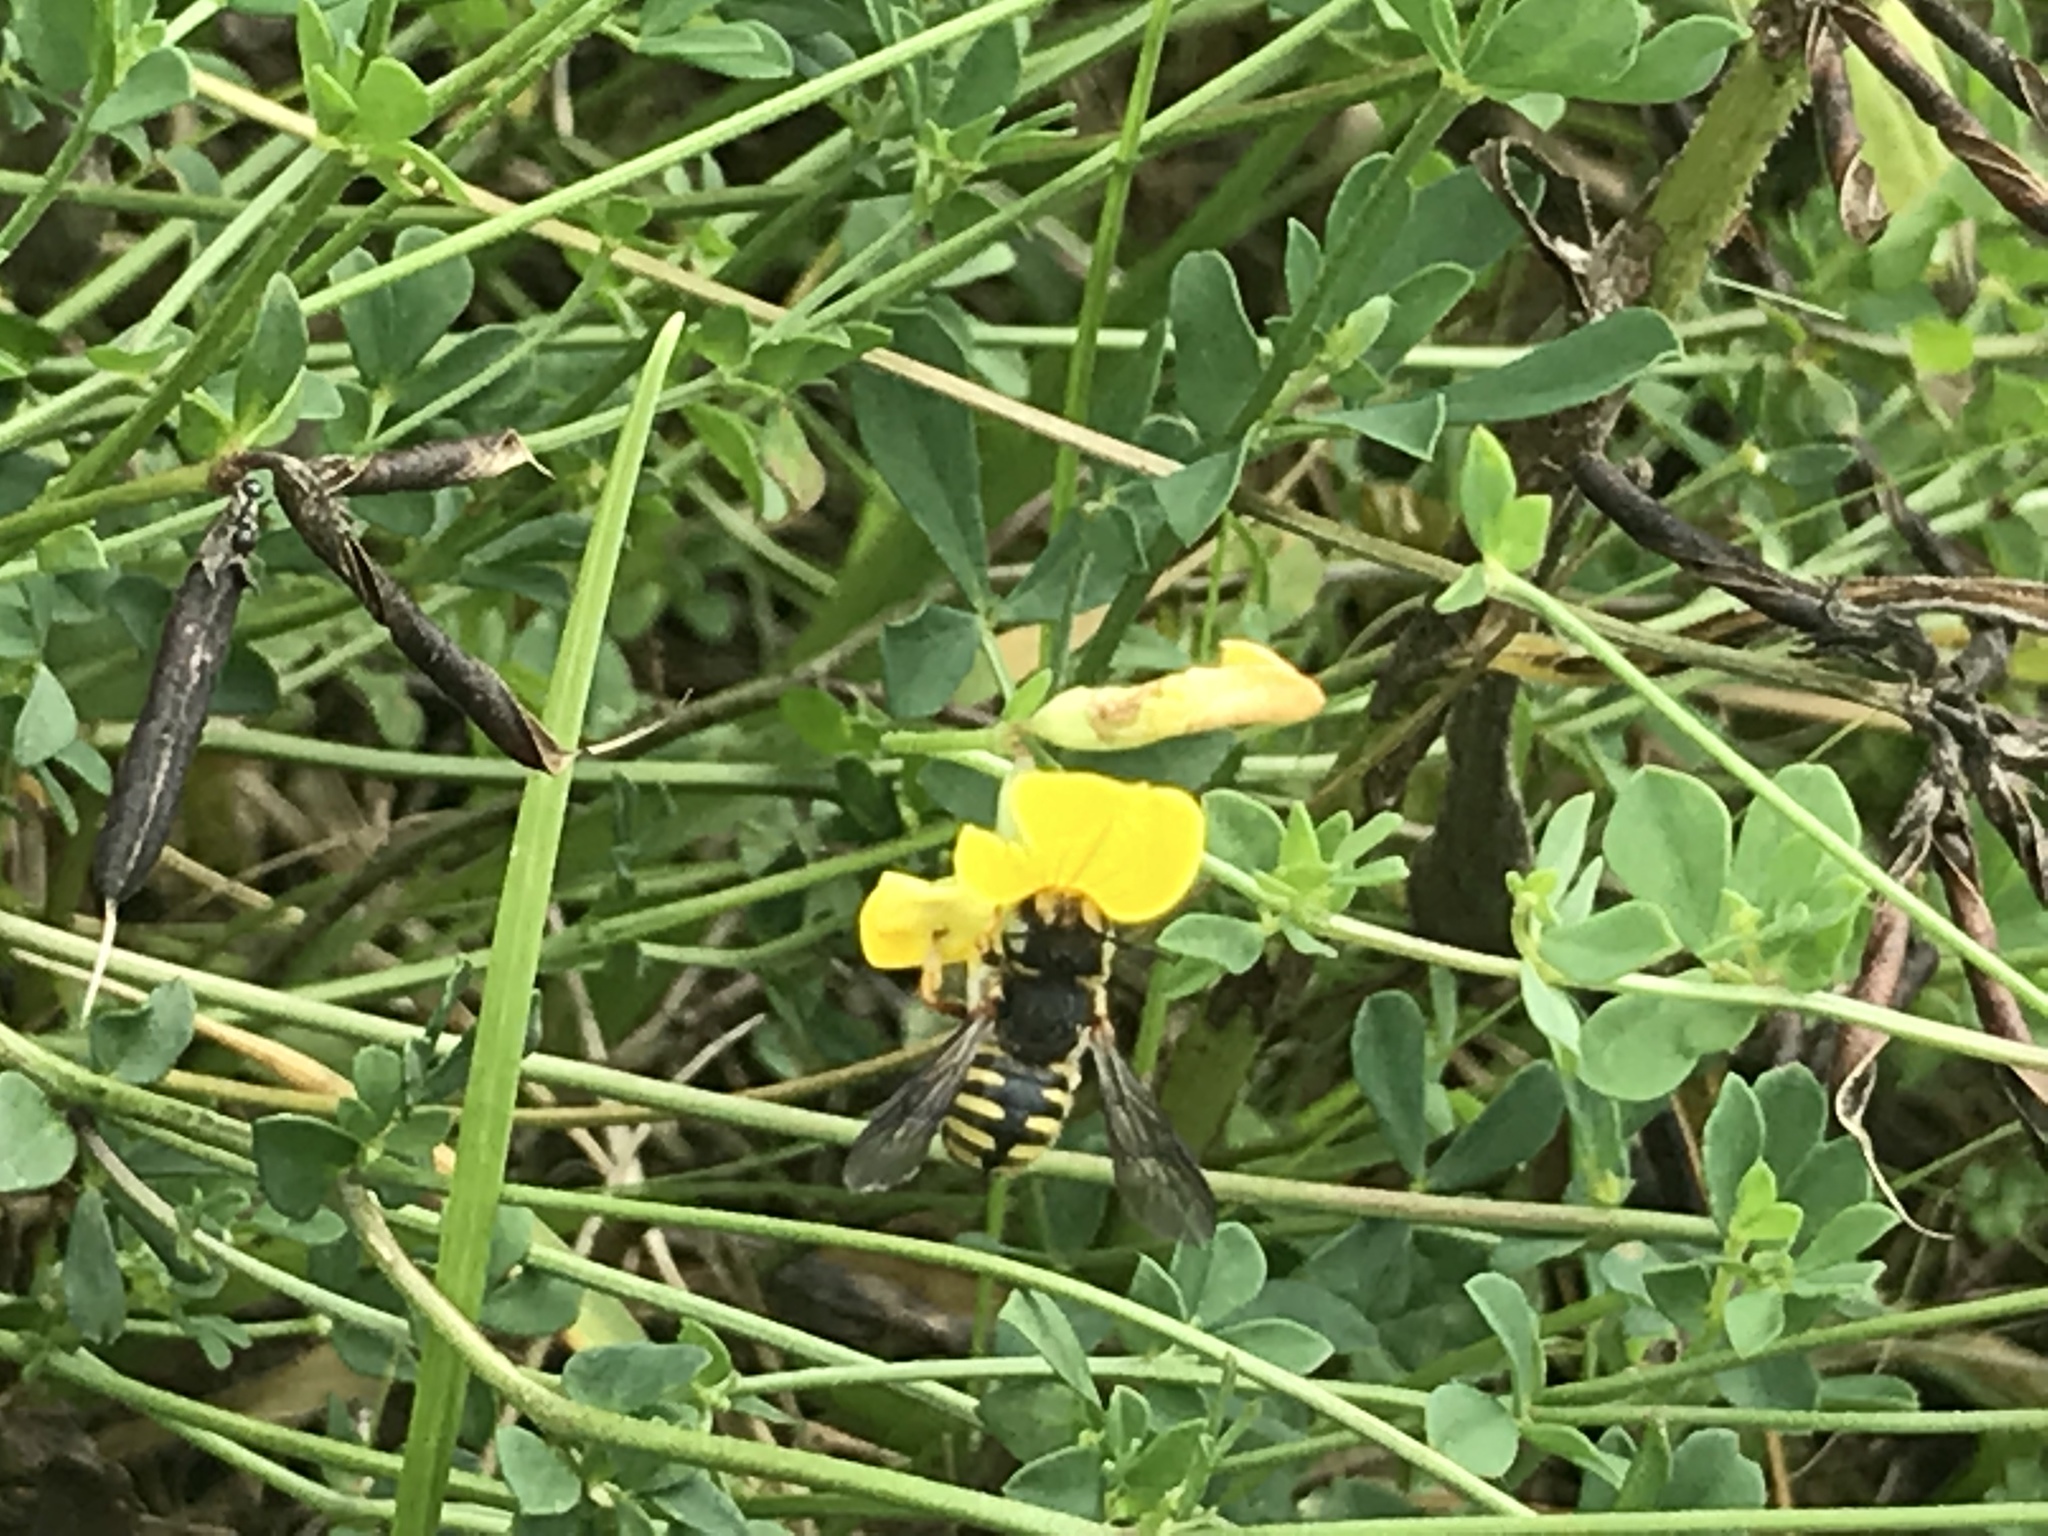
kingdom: Animalia
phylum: Arthropoda
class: Insecta
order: Hymenoptera
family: Megachilidae
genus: Anthidium
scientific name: Anthidium oblongatum
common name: Oblong wool carder bee
